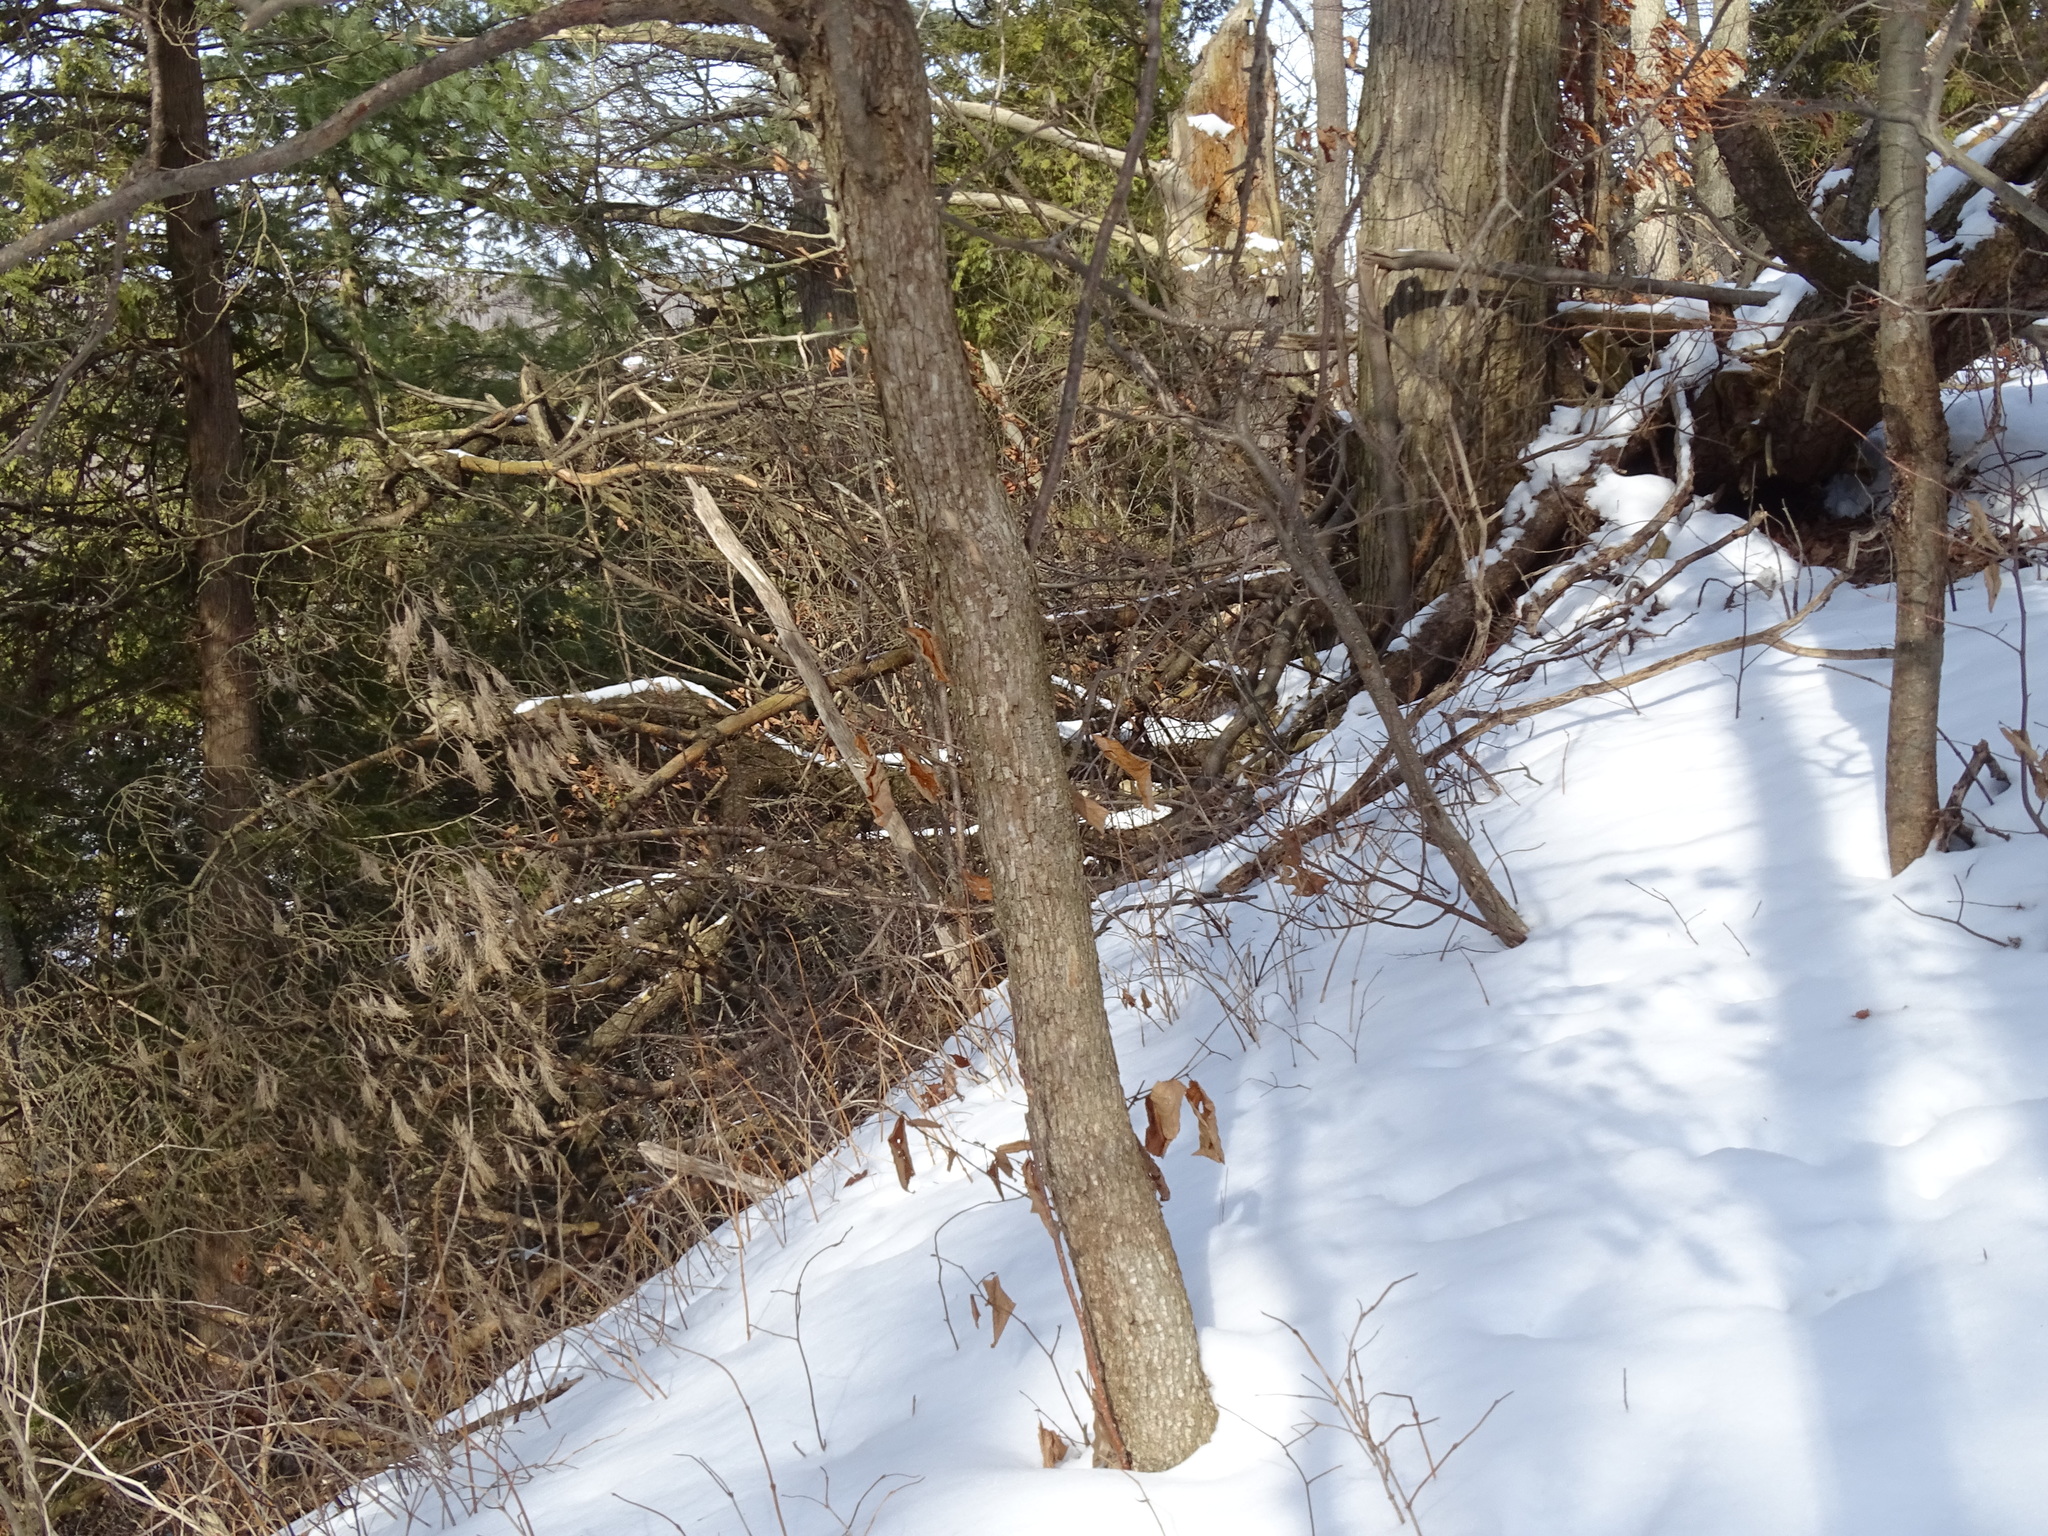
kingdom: Plantae
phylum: Tracheophyta
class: Magnoliopsida
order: Fagales
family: Betulaceae
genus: Ostrya
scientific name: Ostrya virginiana
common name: Ironwood
